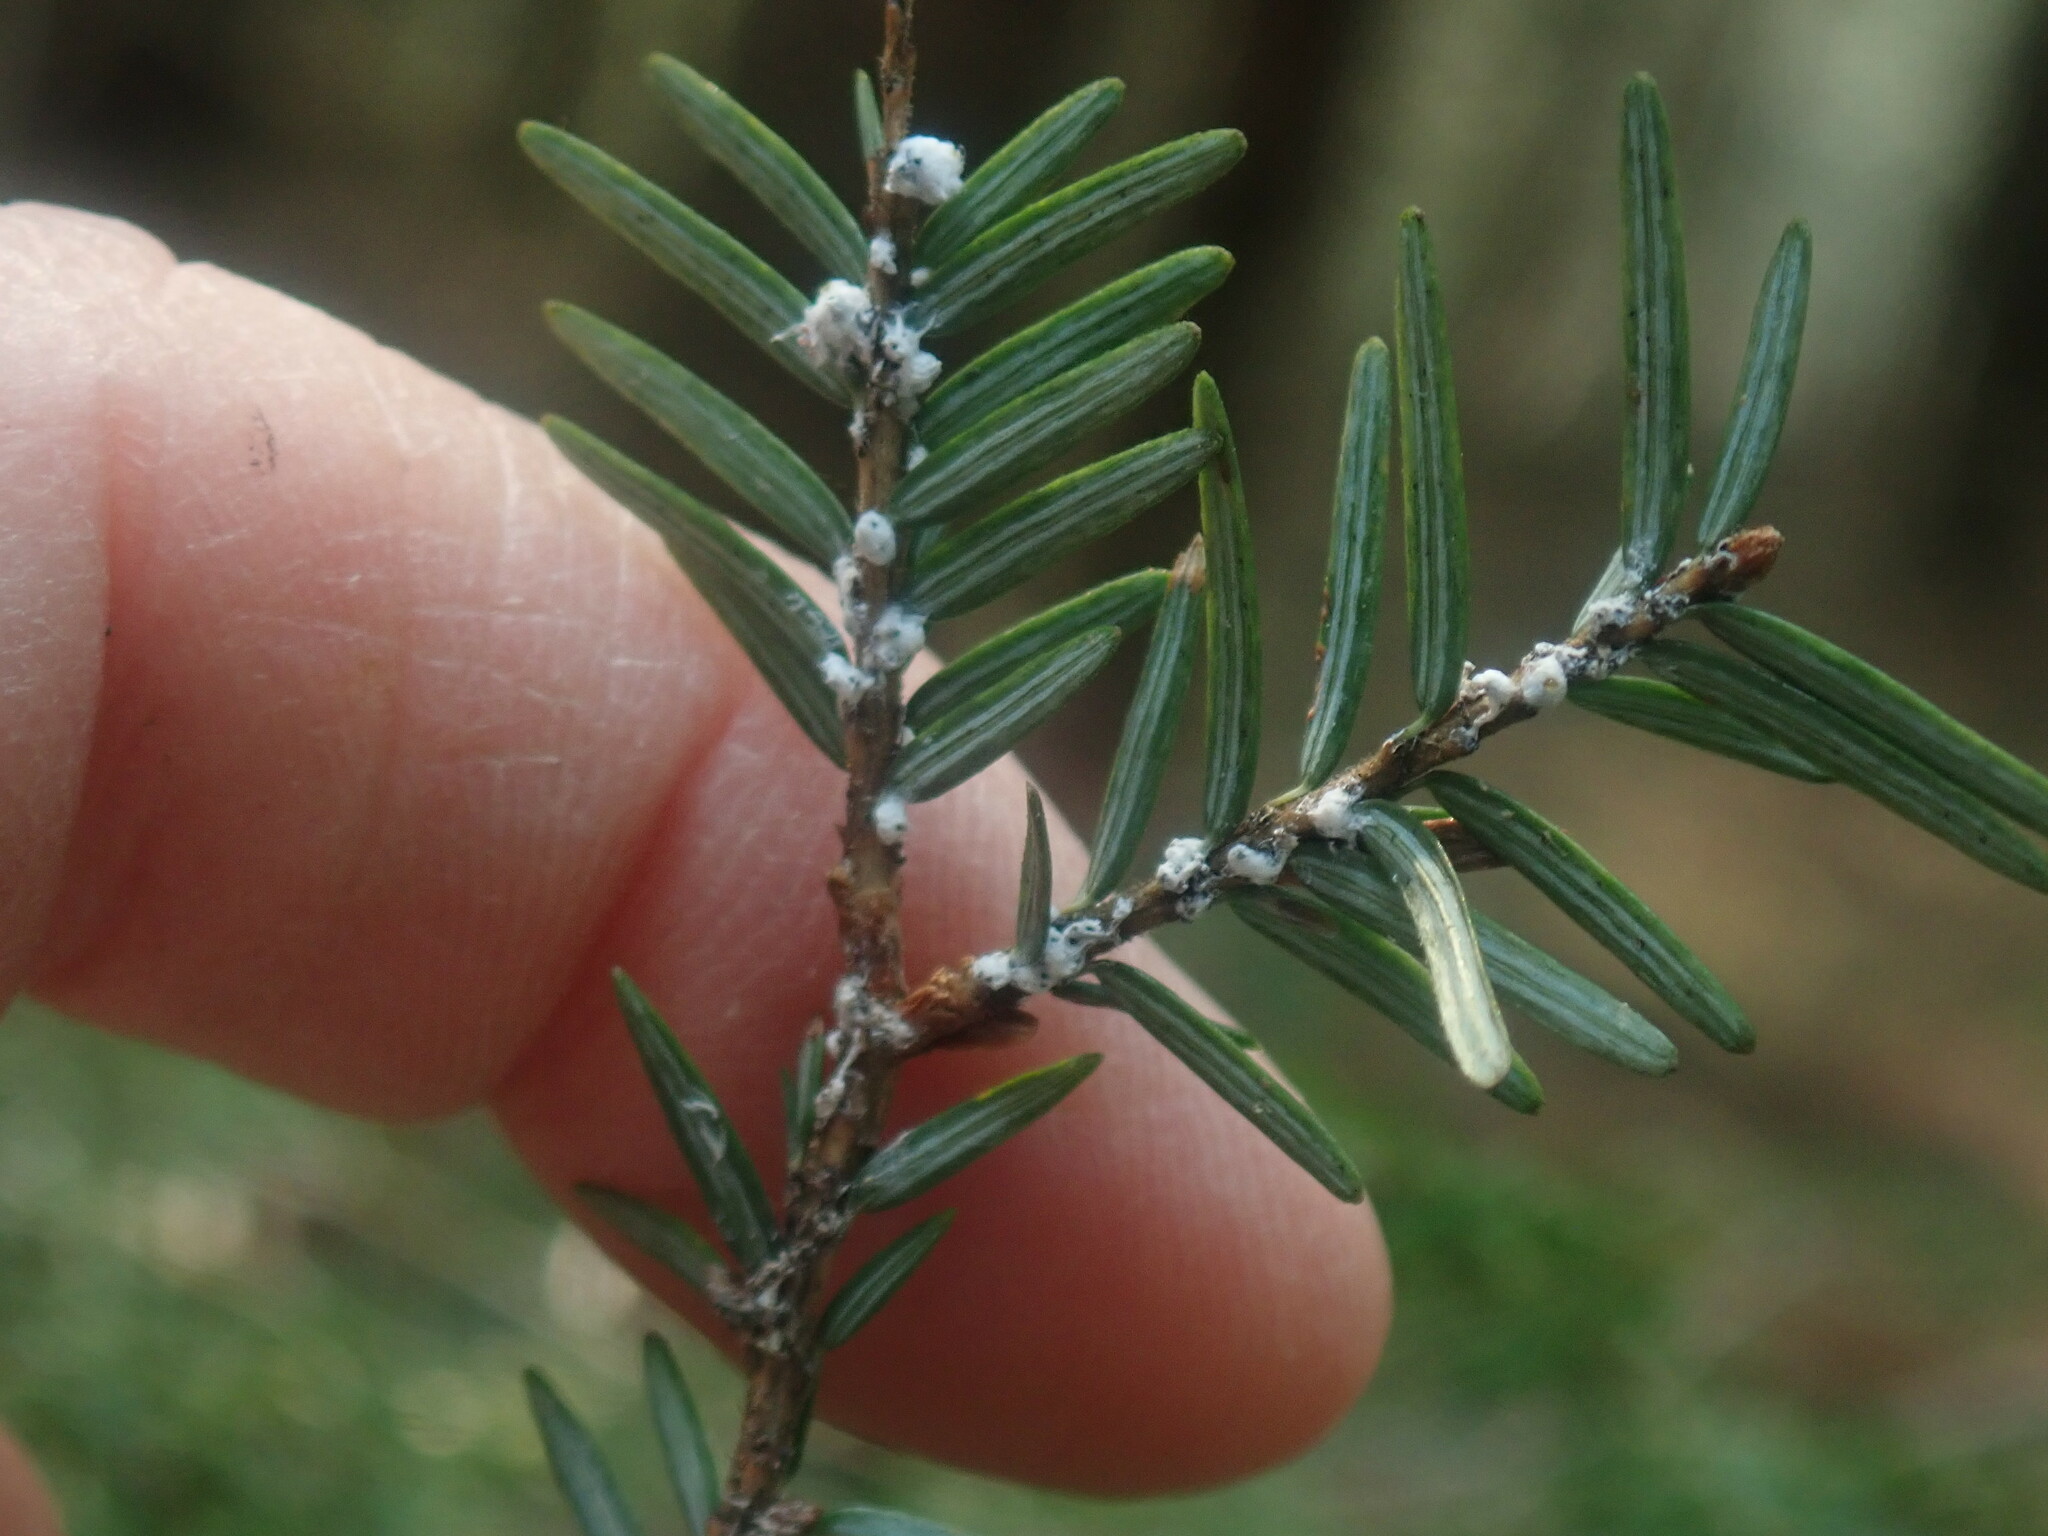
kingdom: Animalia
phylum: Arthropoda
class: Insecta
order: Hemiptera
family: Adelgidae
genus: Adelges
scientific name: Adelges tsugae
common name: Hemlock woolly adelgid
